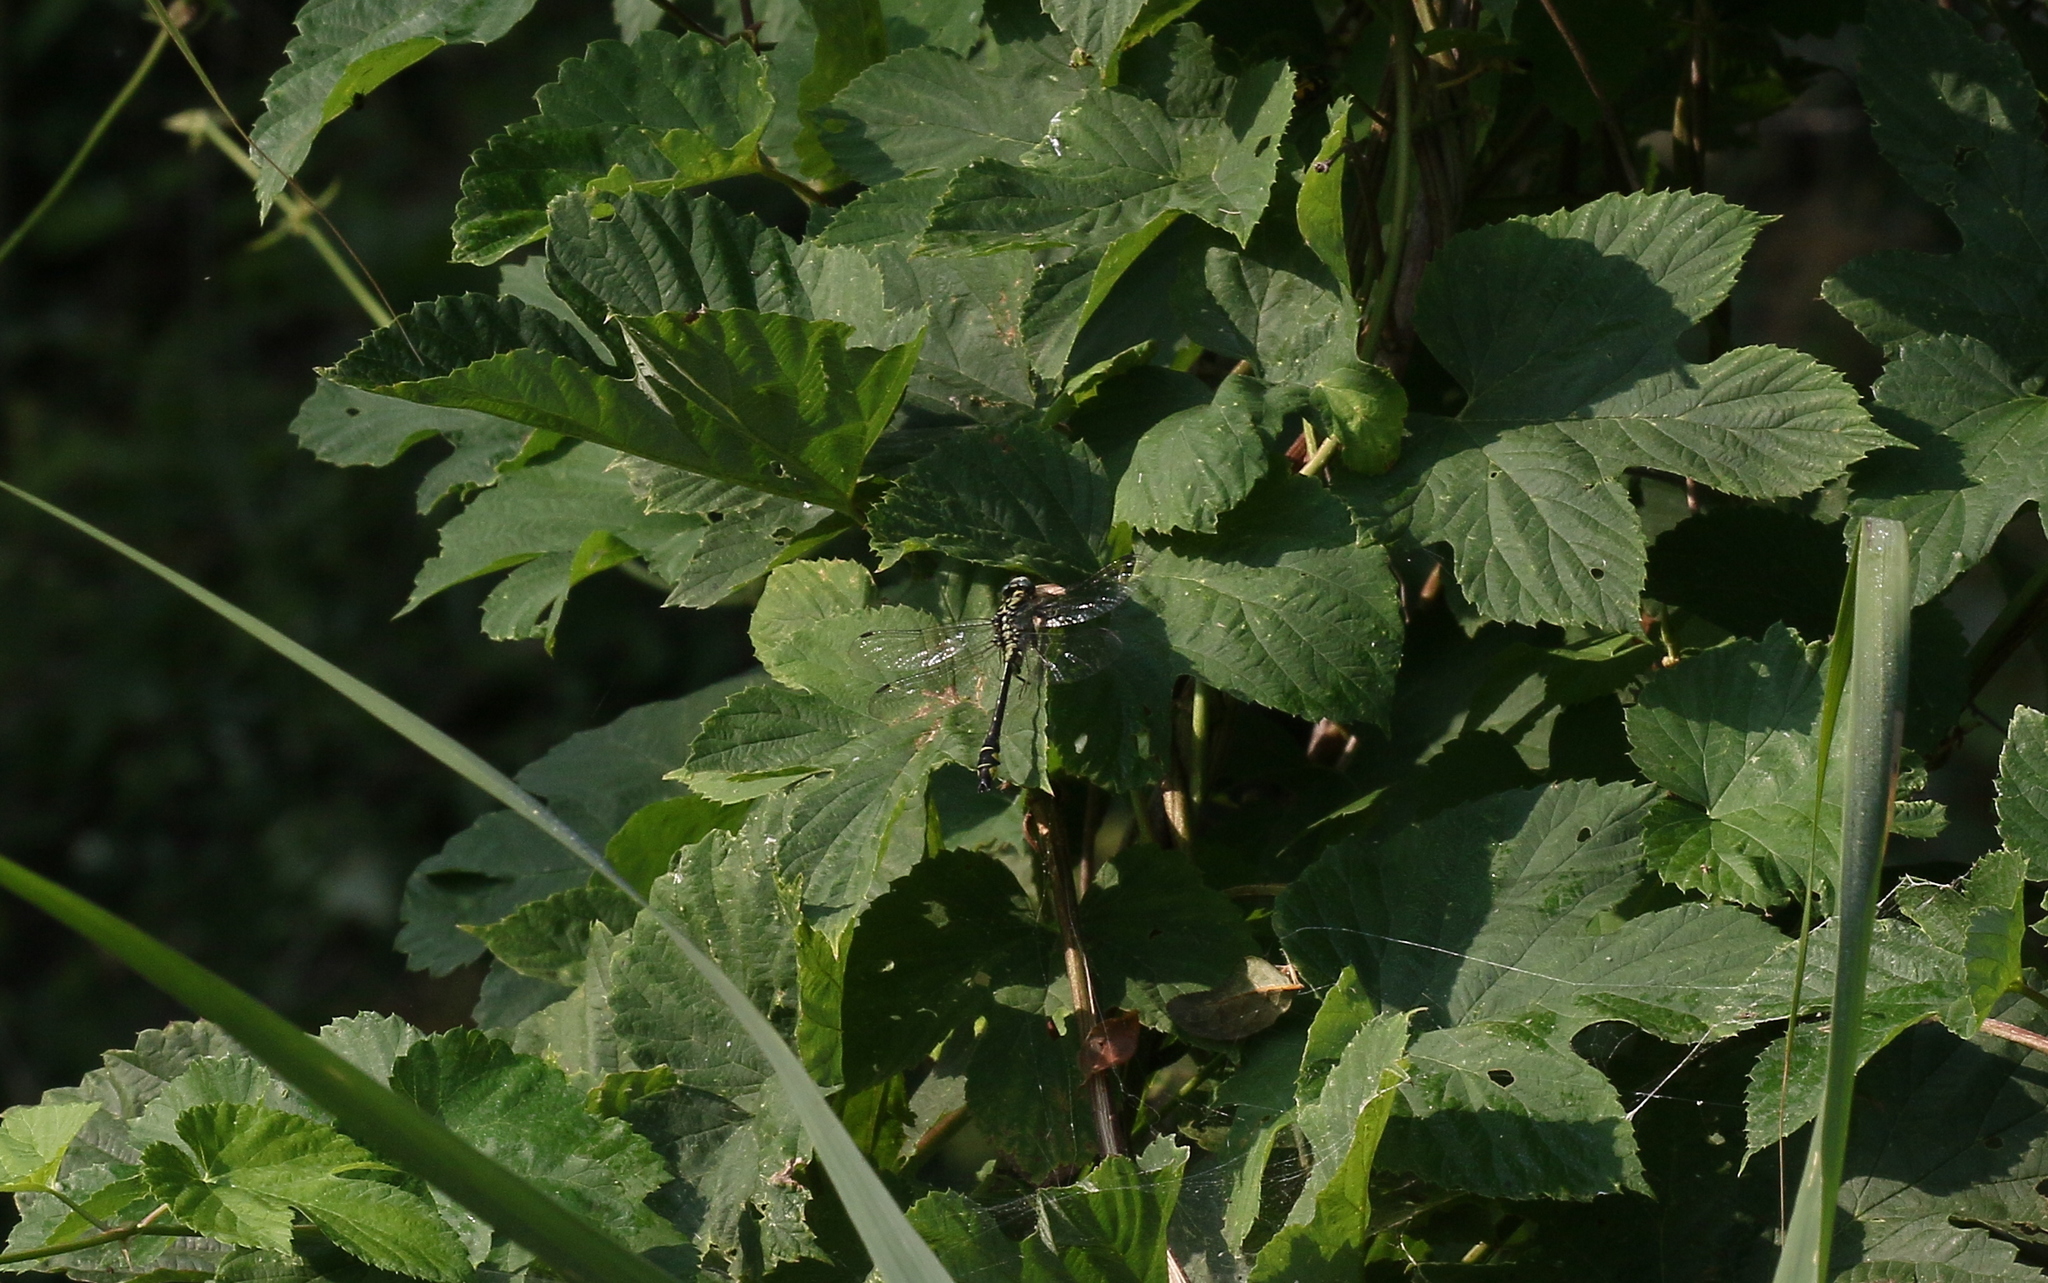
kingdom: Animalia
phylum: Arthropoda
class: Insecta
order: Odonata
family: Gomphidae
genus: Gomphus
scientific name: Gomphus schneiderii
